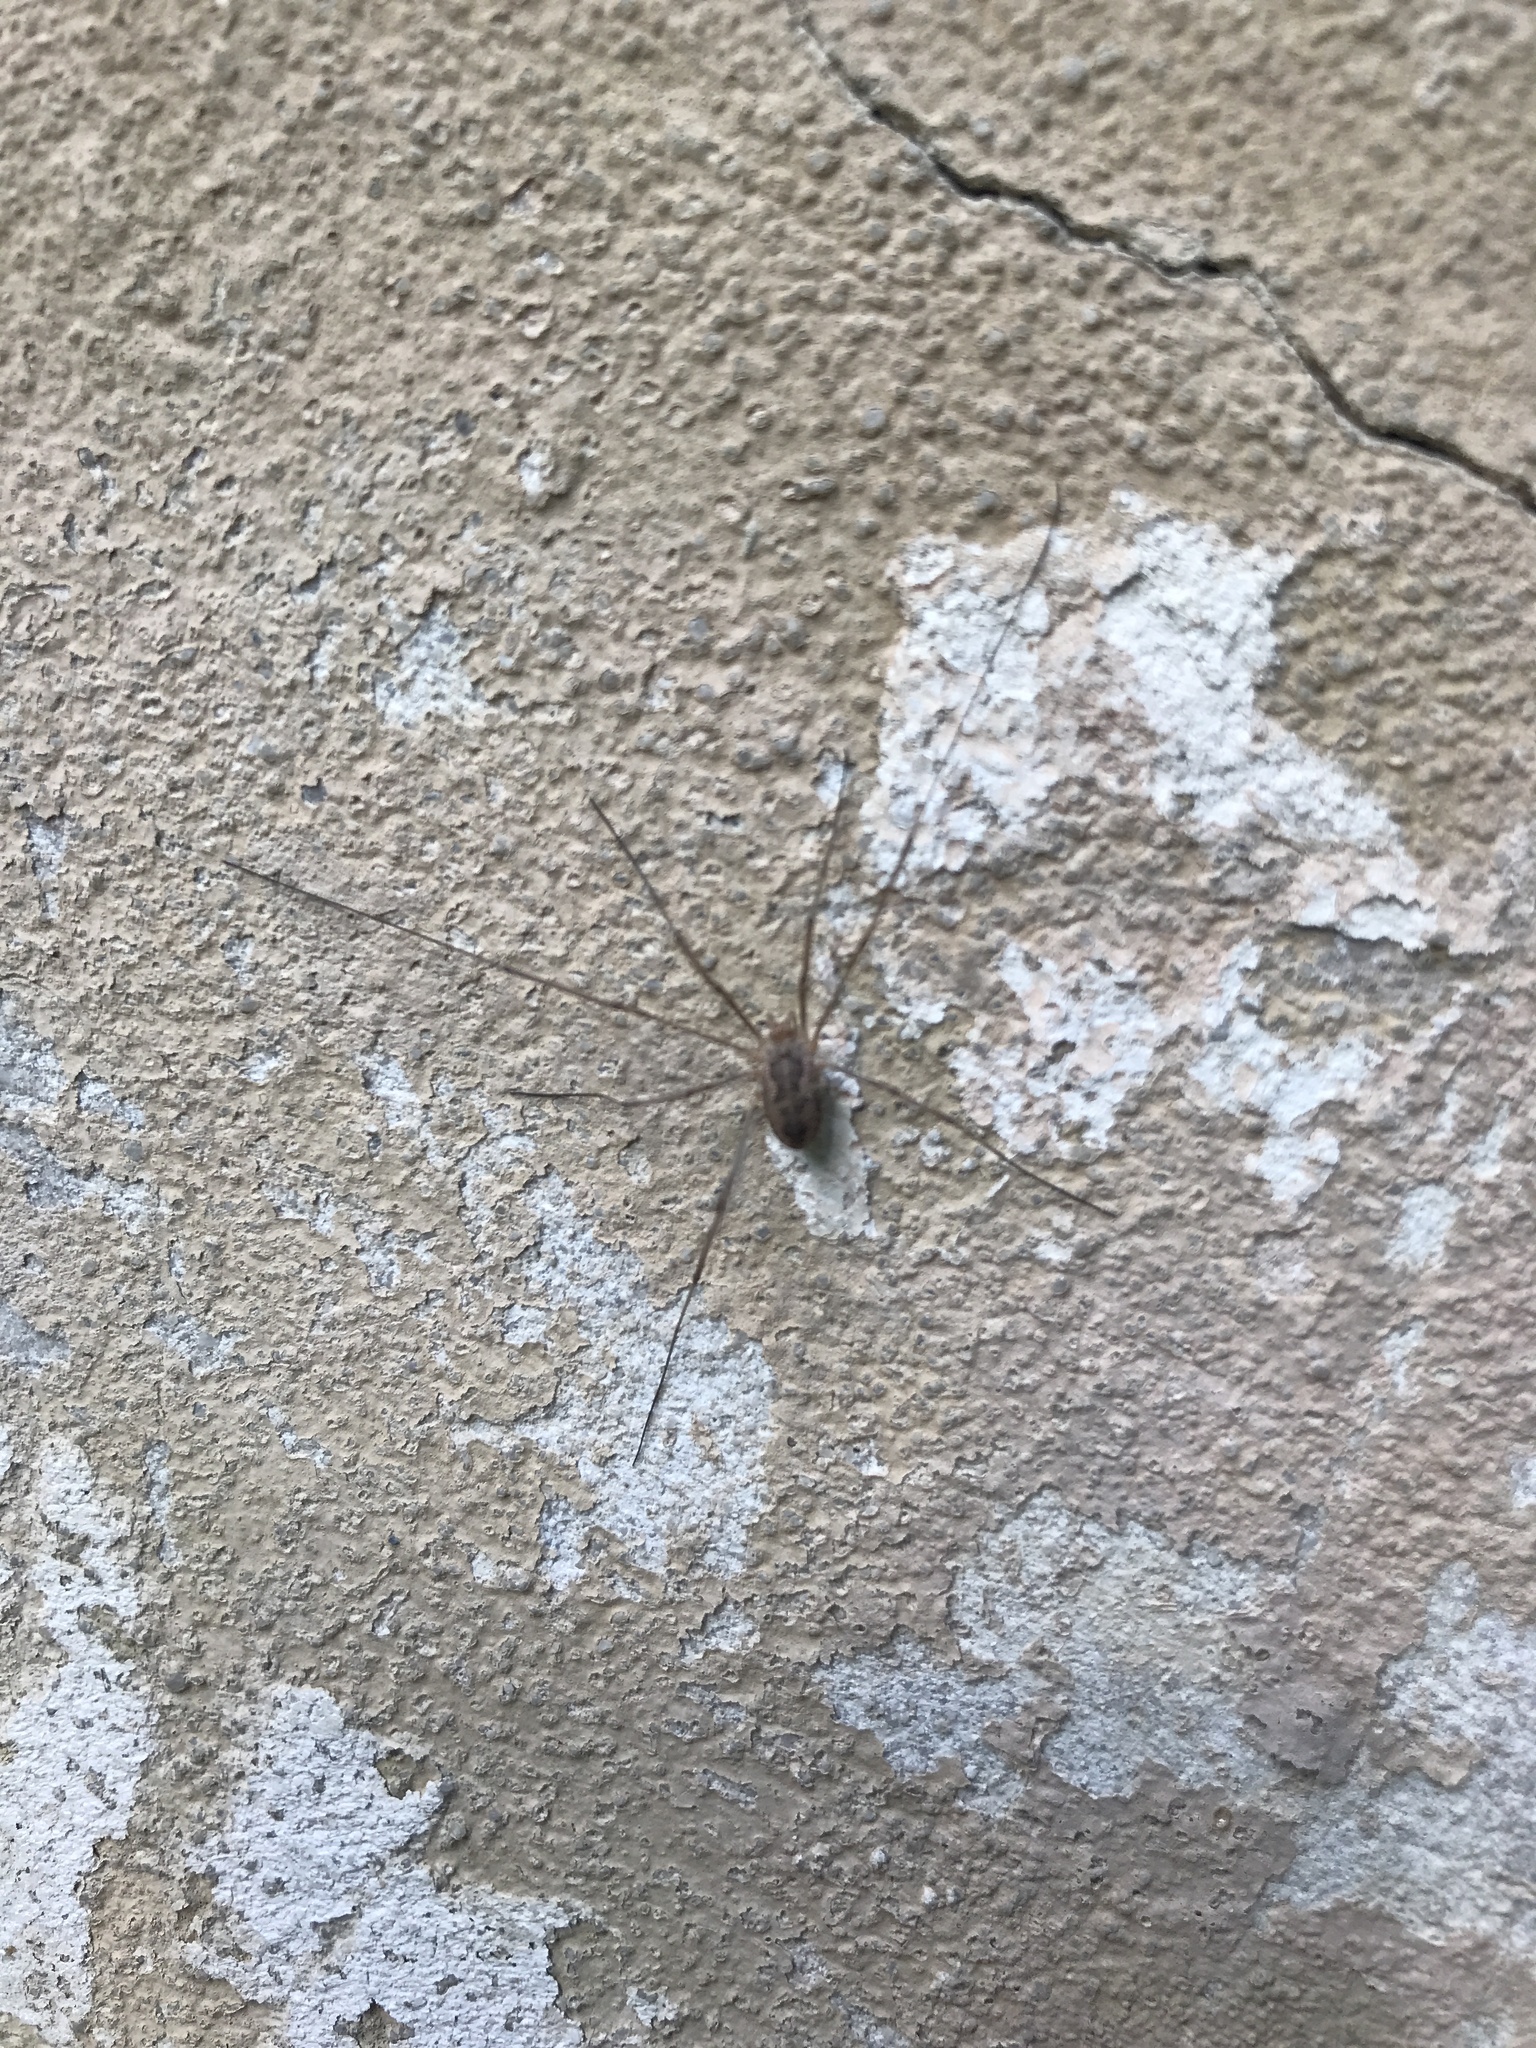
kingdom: Animalia
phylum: Arthropoda
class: Arachnida
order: Opiliones
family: Phalangiidae
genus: Phalangium
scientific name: Phalangium opilio
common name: Daddy longleg
